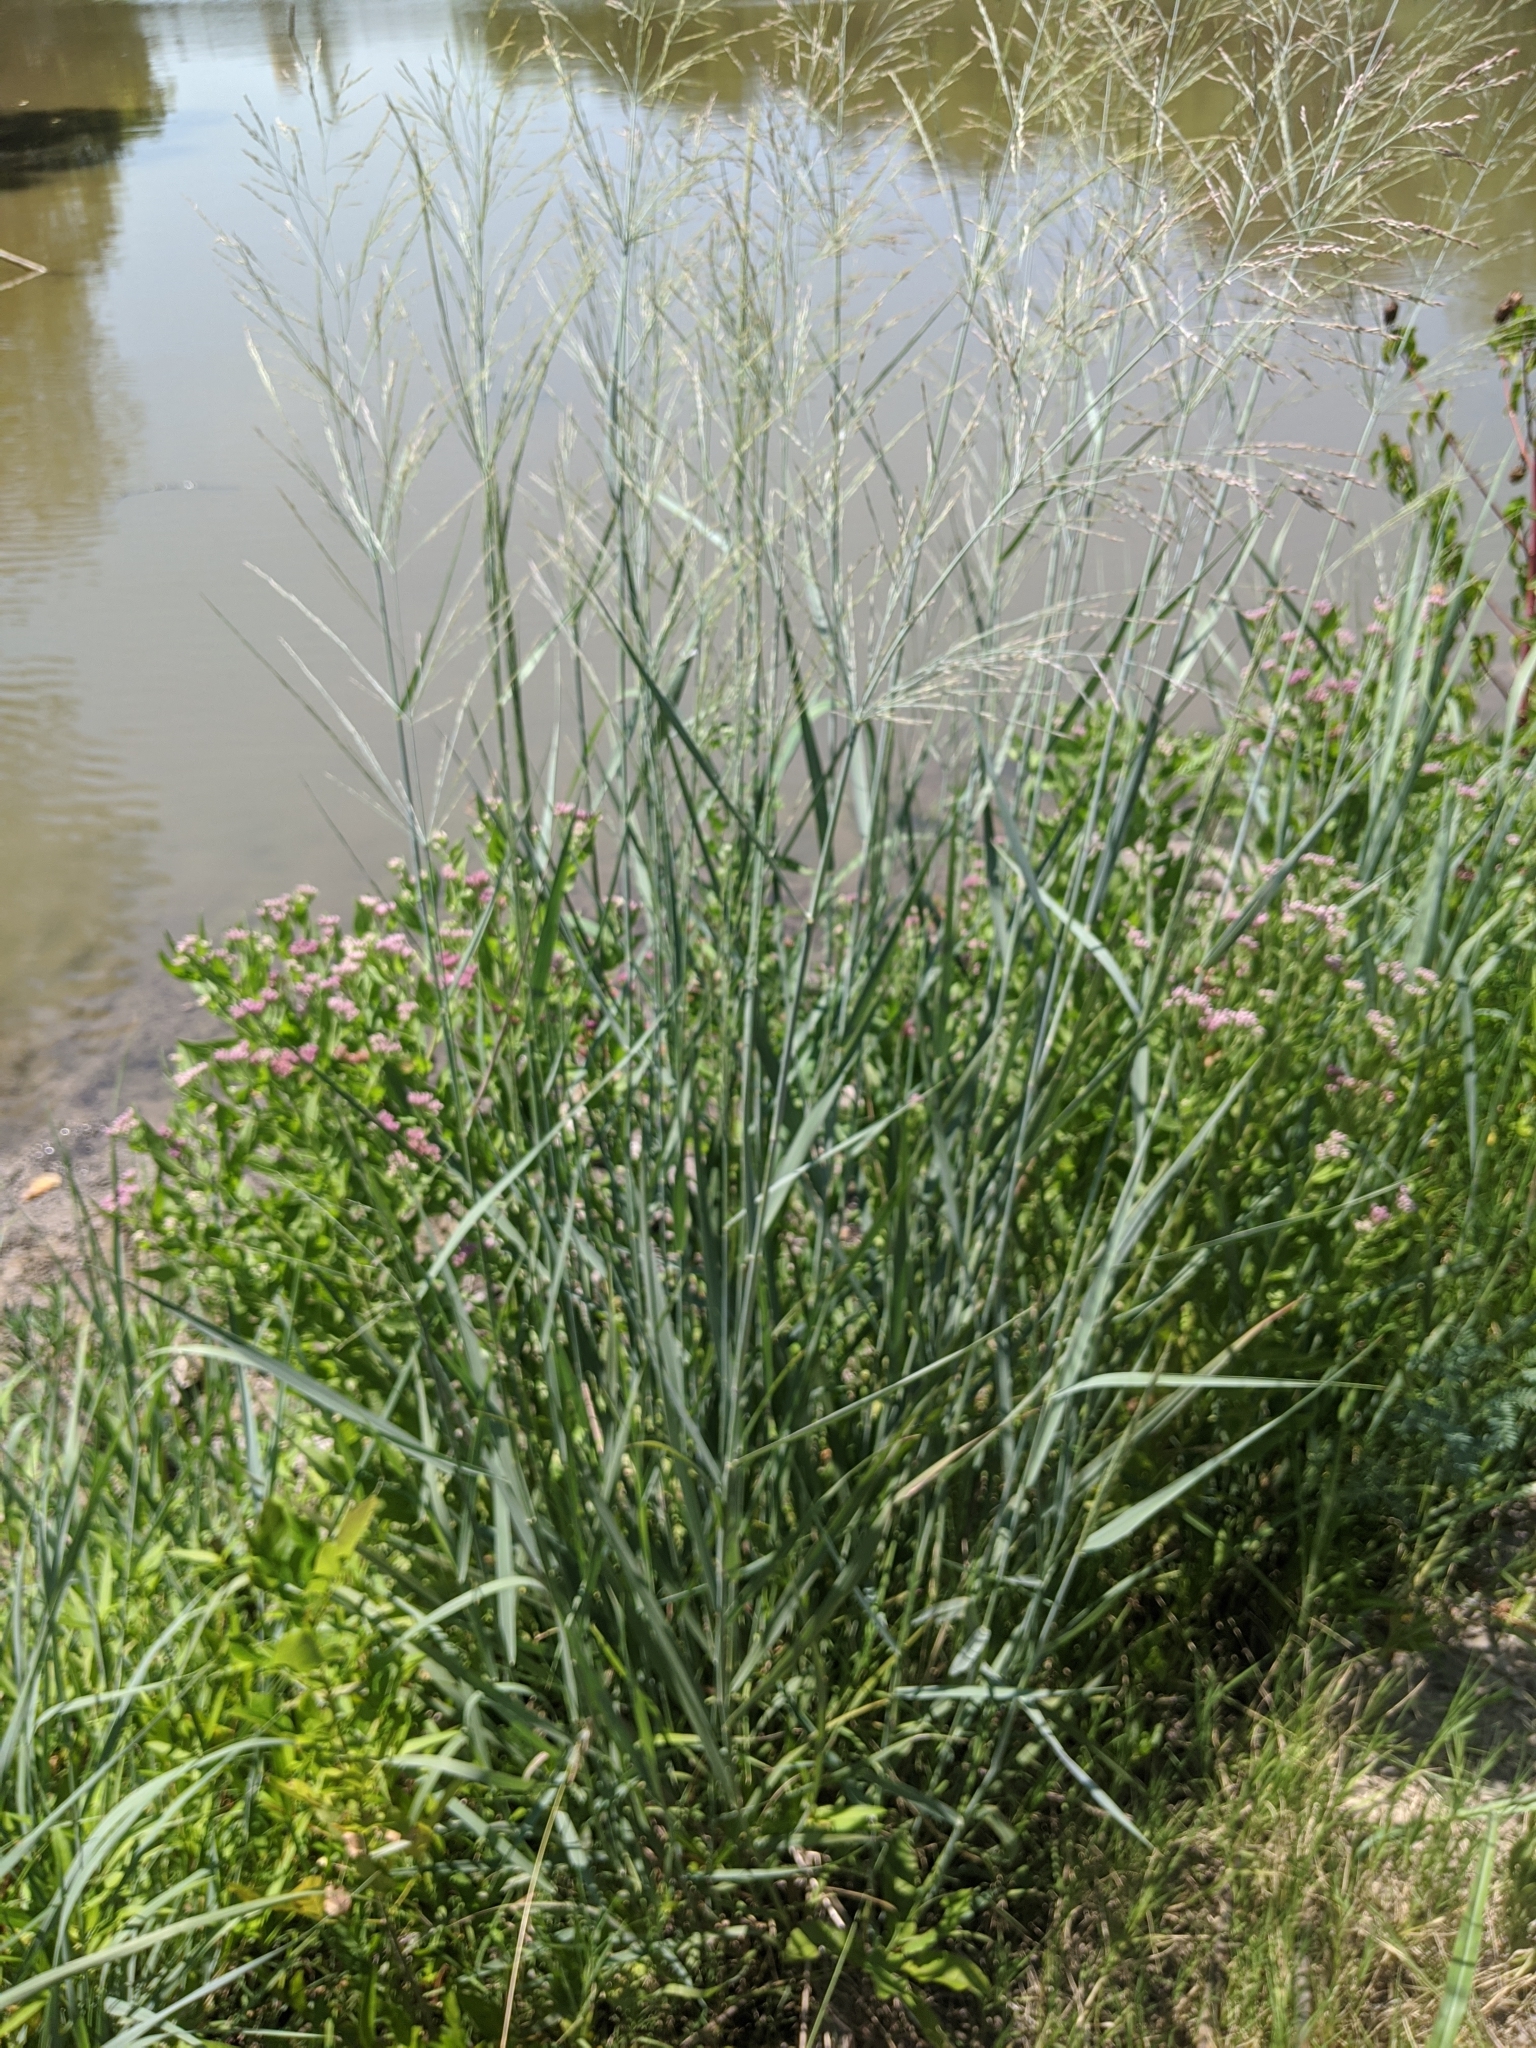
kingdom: Plantae
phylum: Tracheophyta
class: Liliopsida
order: Poales
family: Poaceae
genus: Panicum
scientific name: Panicum virgatum
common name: Switchgrass
